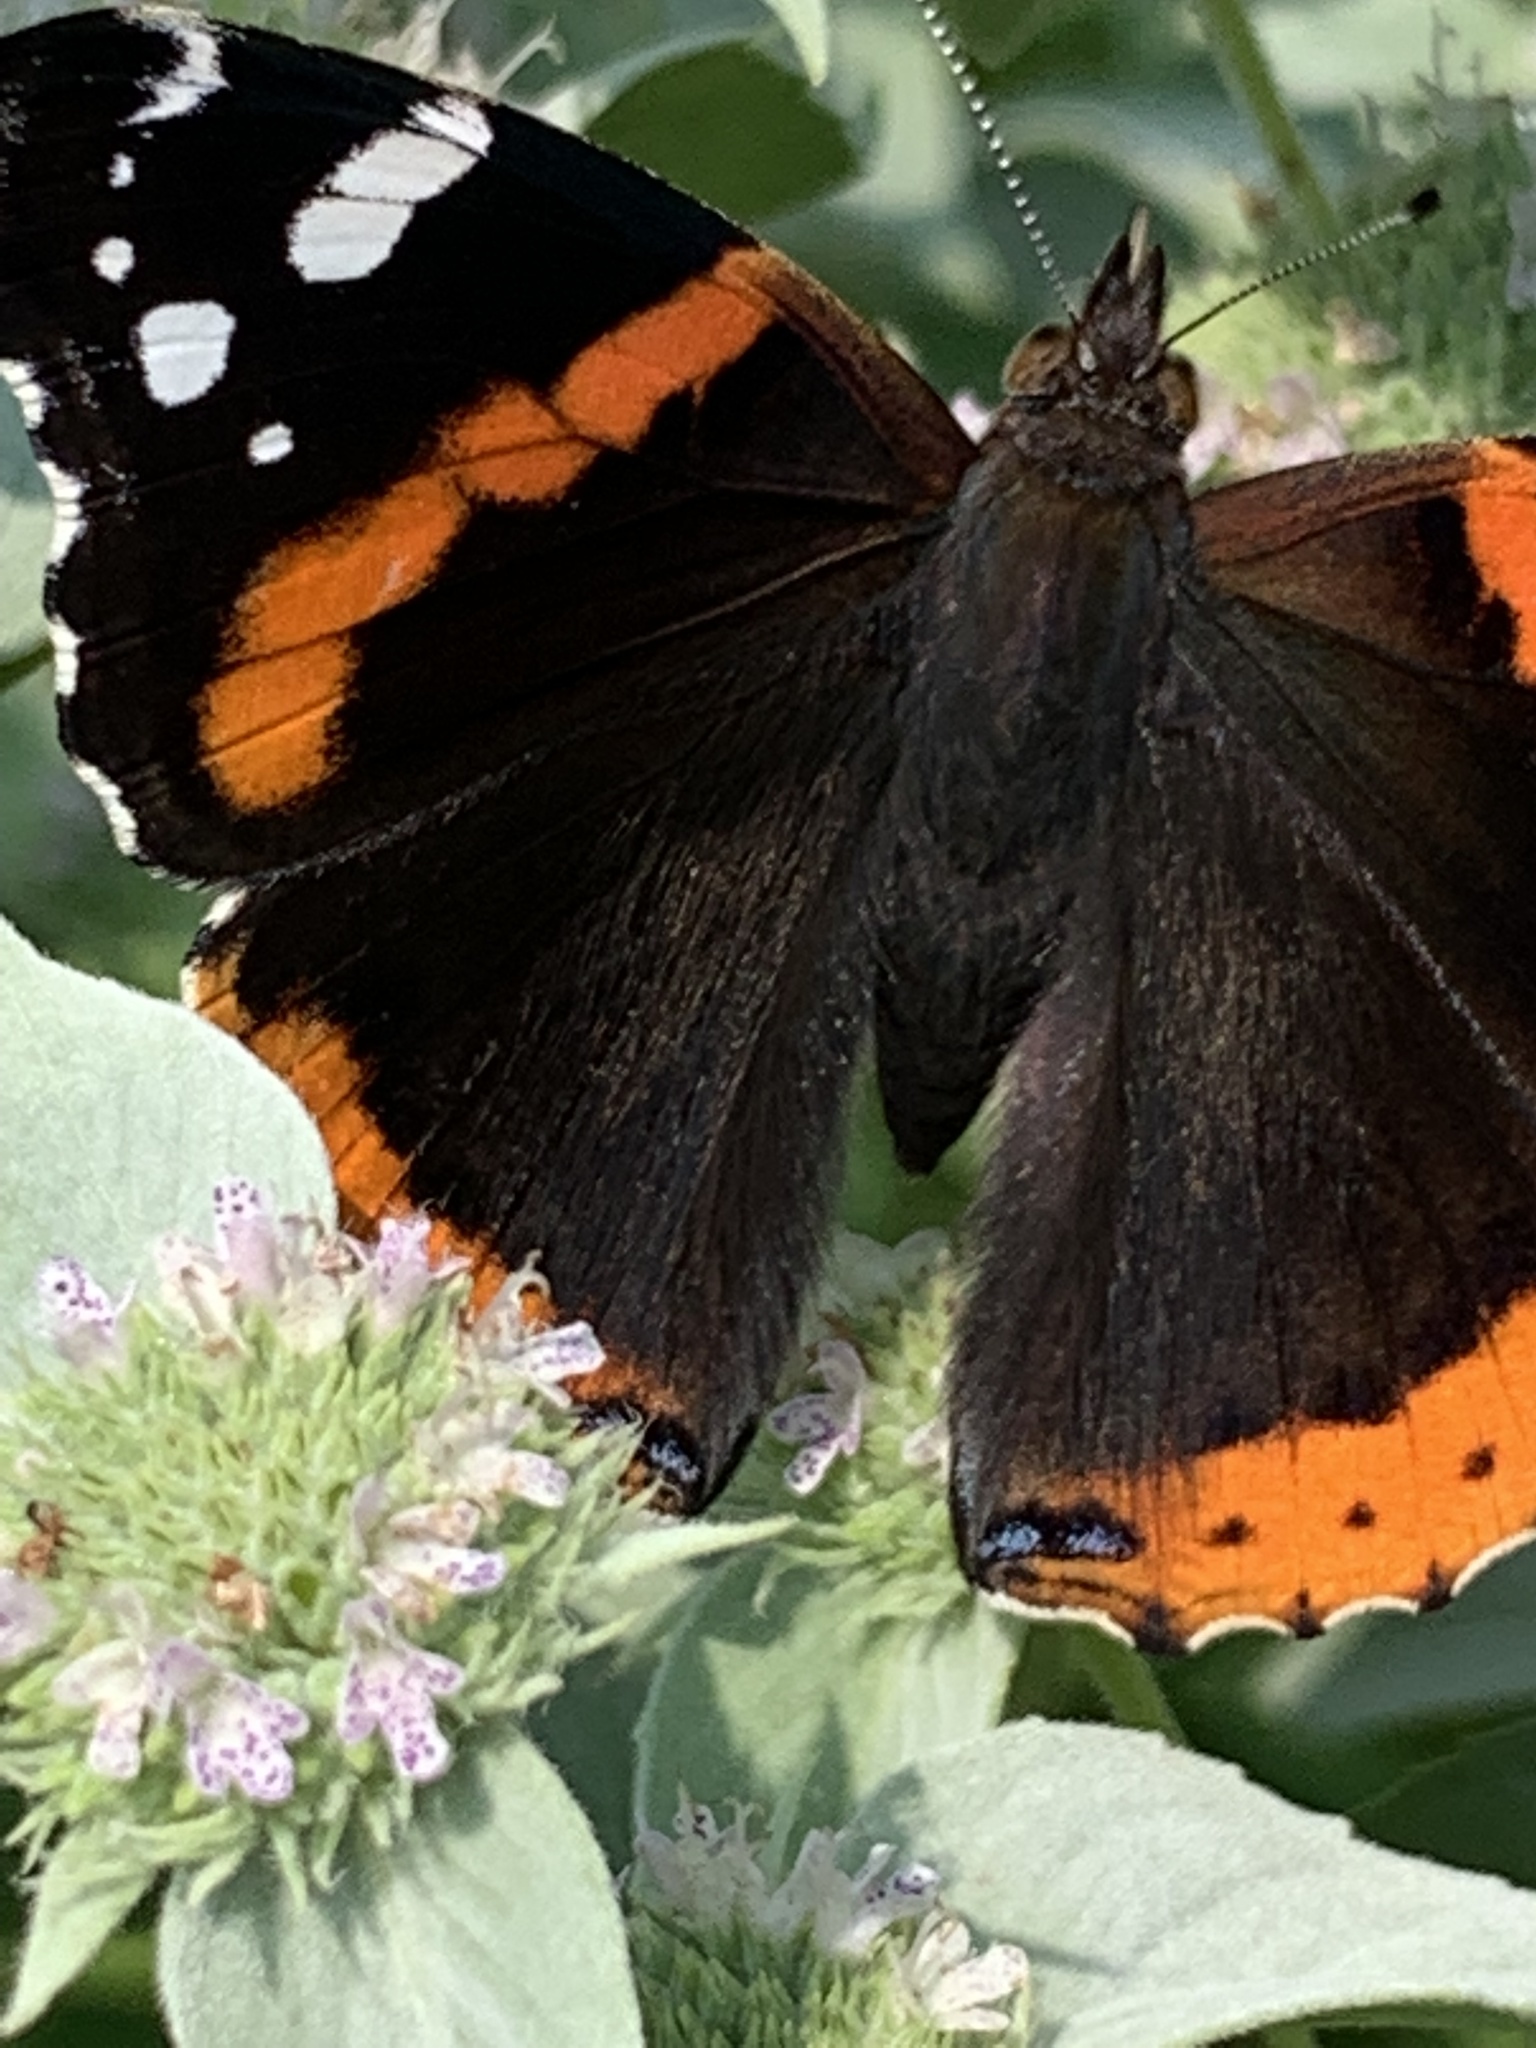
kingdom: Animalia
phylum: Arthropoda
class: Insecta
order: Lepidoptera
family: Nymphalidae
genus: Vanessa
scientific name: Vanessa atalanta
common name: Red admiral
